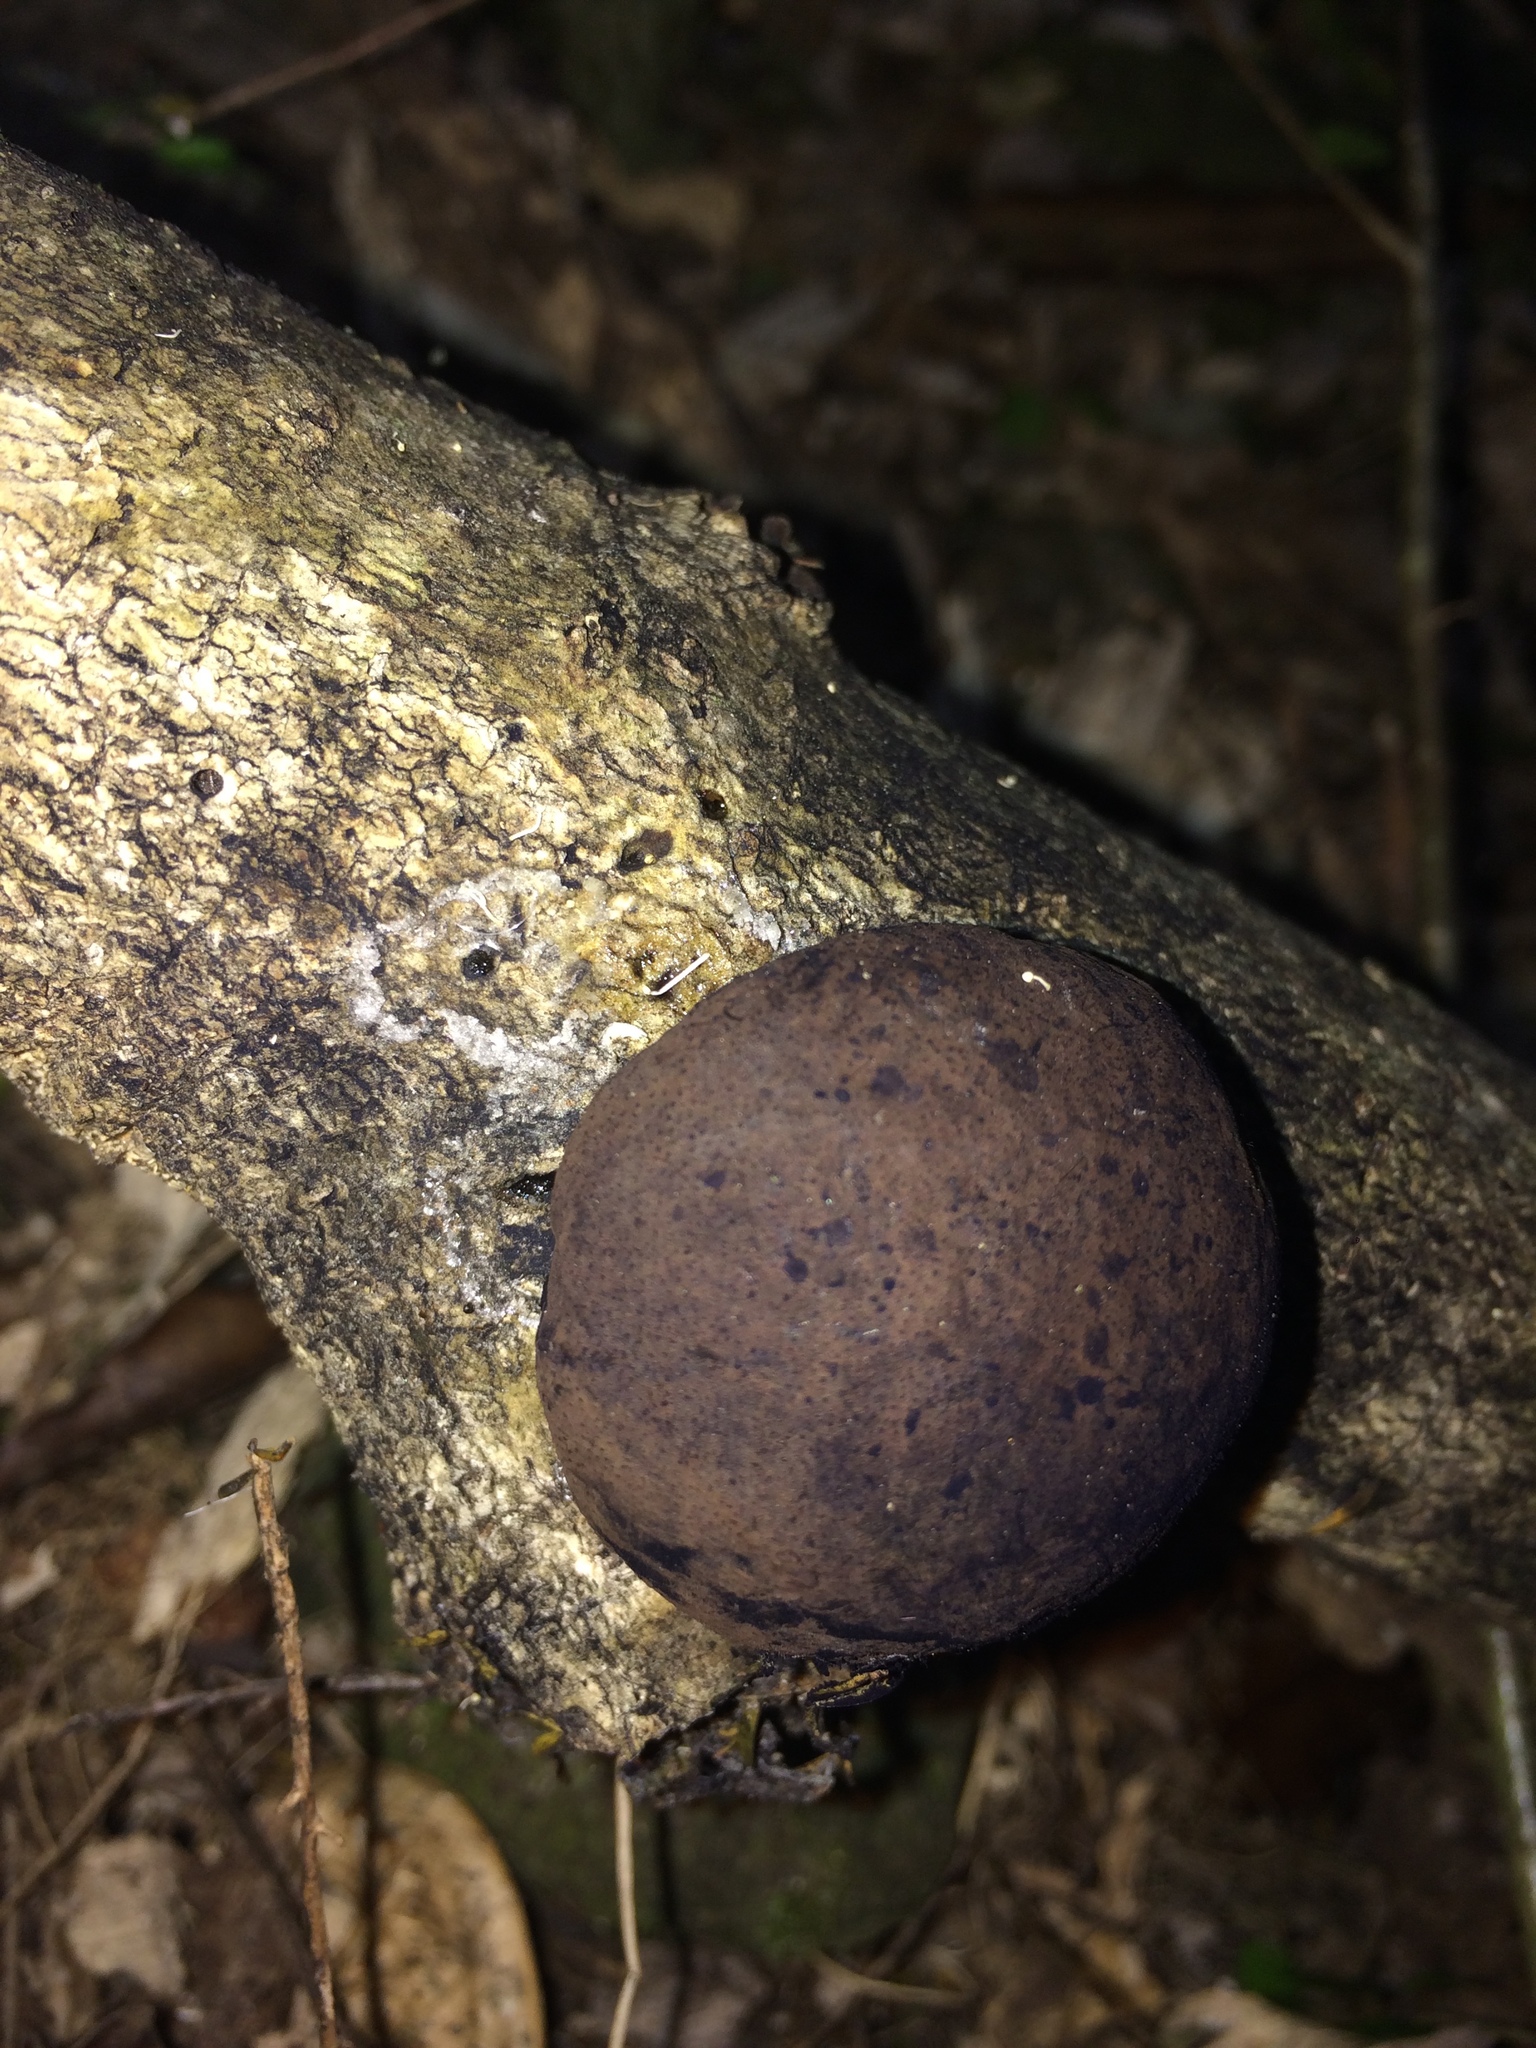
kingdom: Fungi
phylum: Ascomycota
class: Sordariomycetes
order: Xylariales
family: Hypoxylaceae
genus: Daldinia
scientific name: Daldinia
